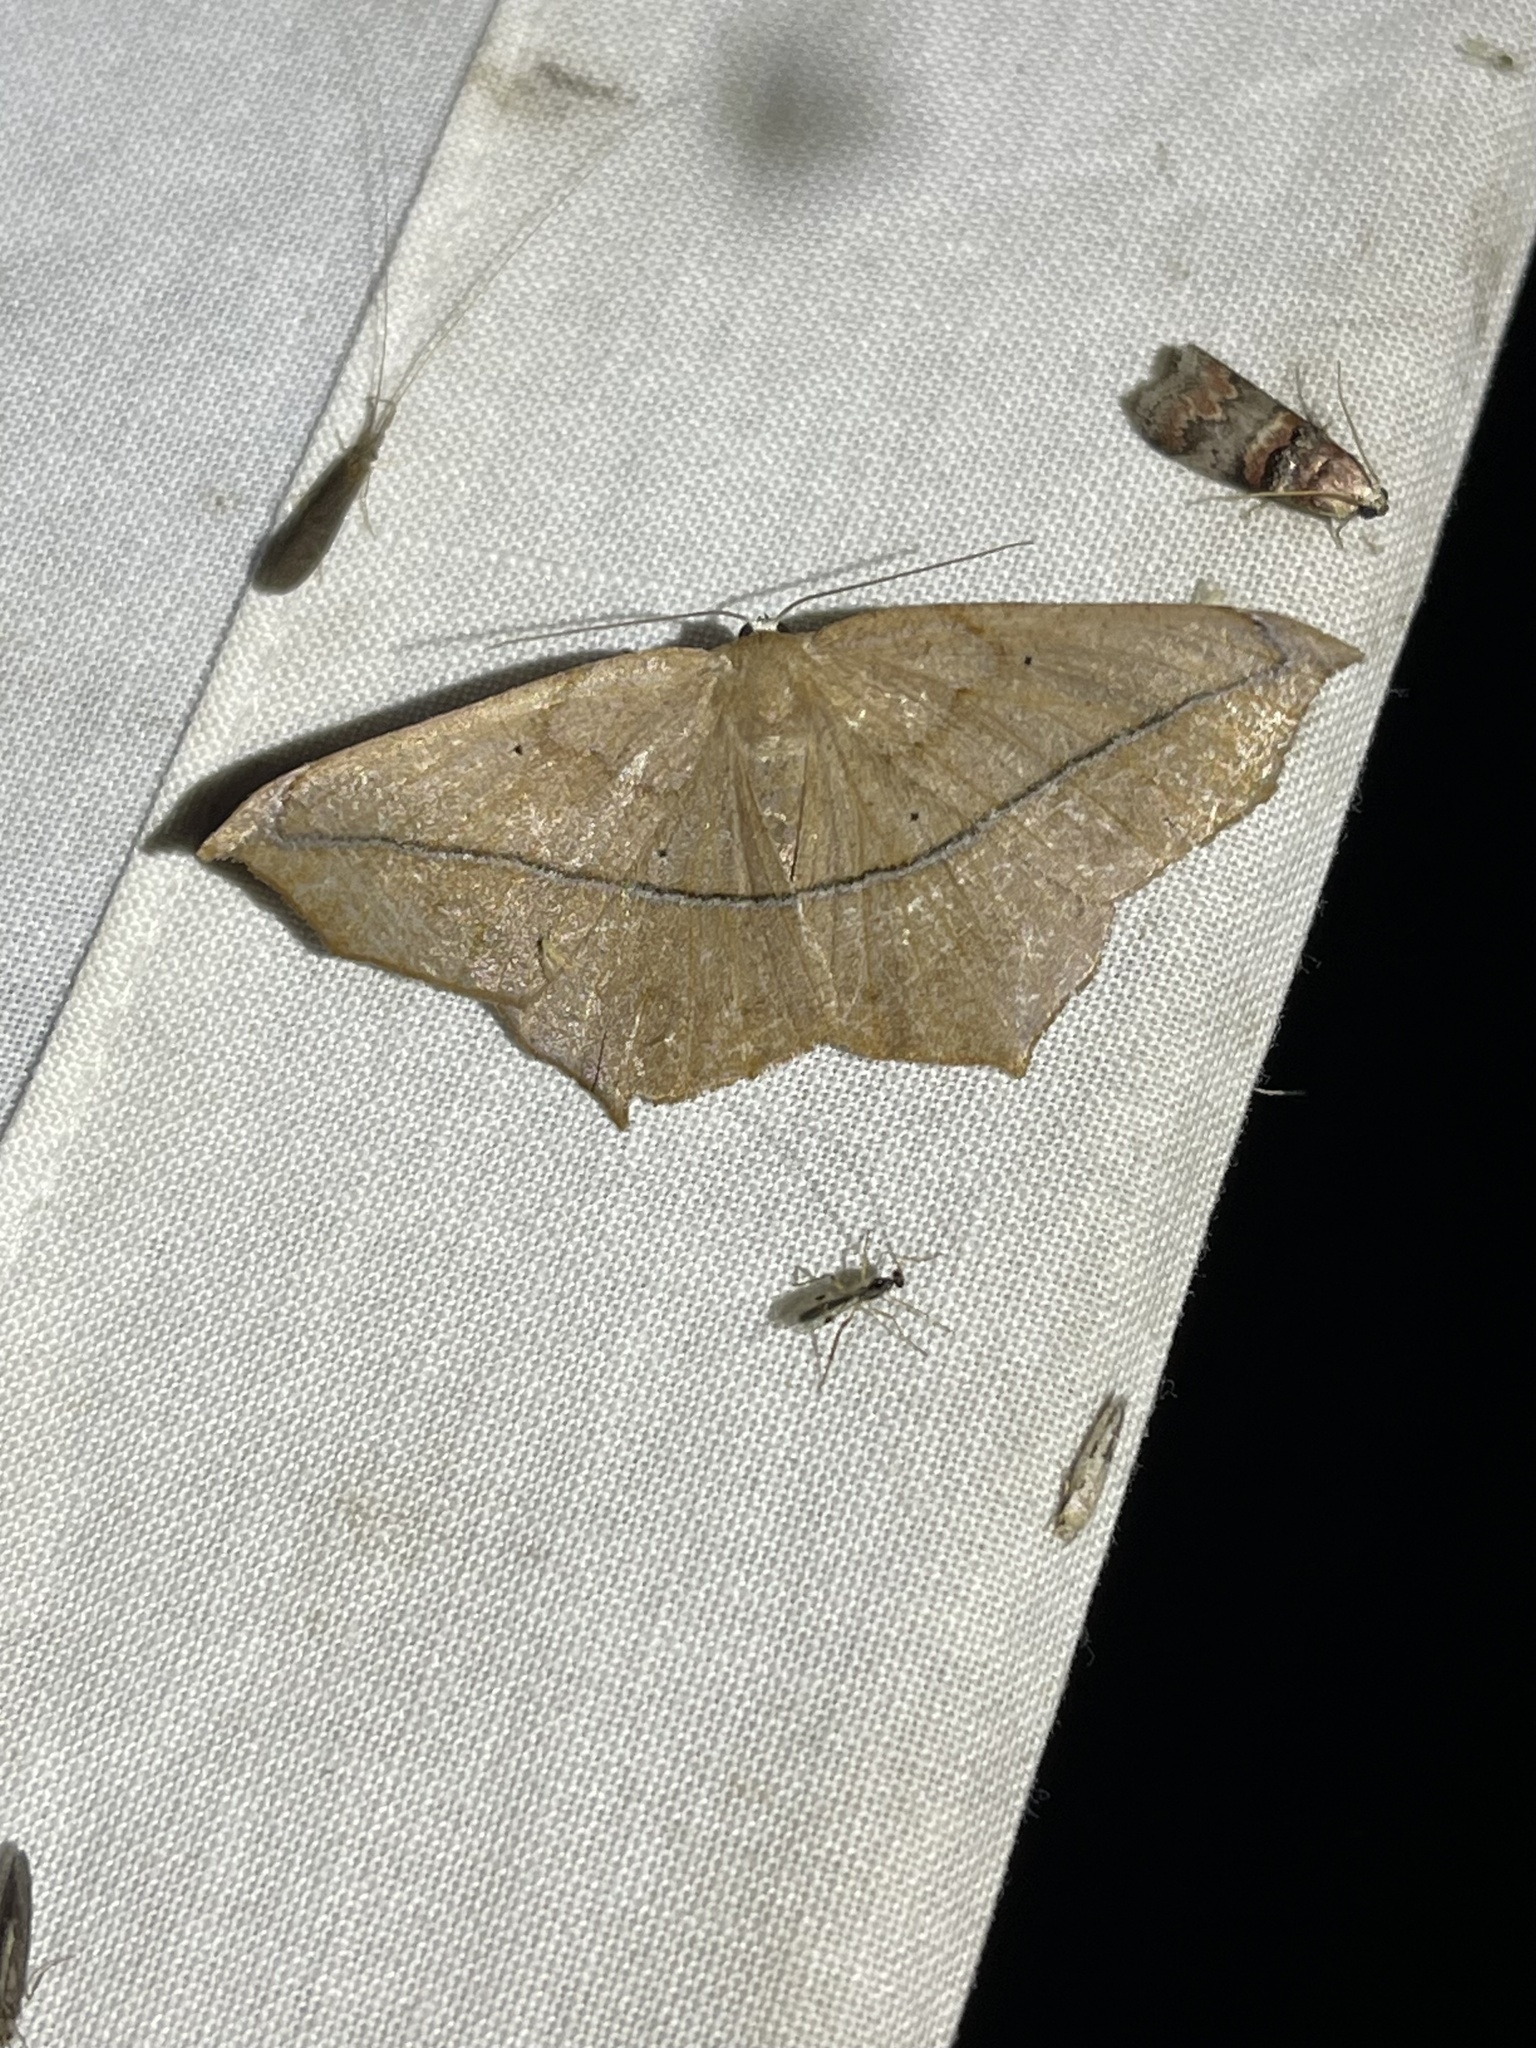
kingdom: Animalia
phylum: Arthropoda
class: Insecta
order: Lepidoptera
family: Geometridae
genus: Prochoerodes
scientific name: Prochoerodes lineola
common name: Large maple spanworm
